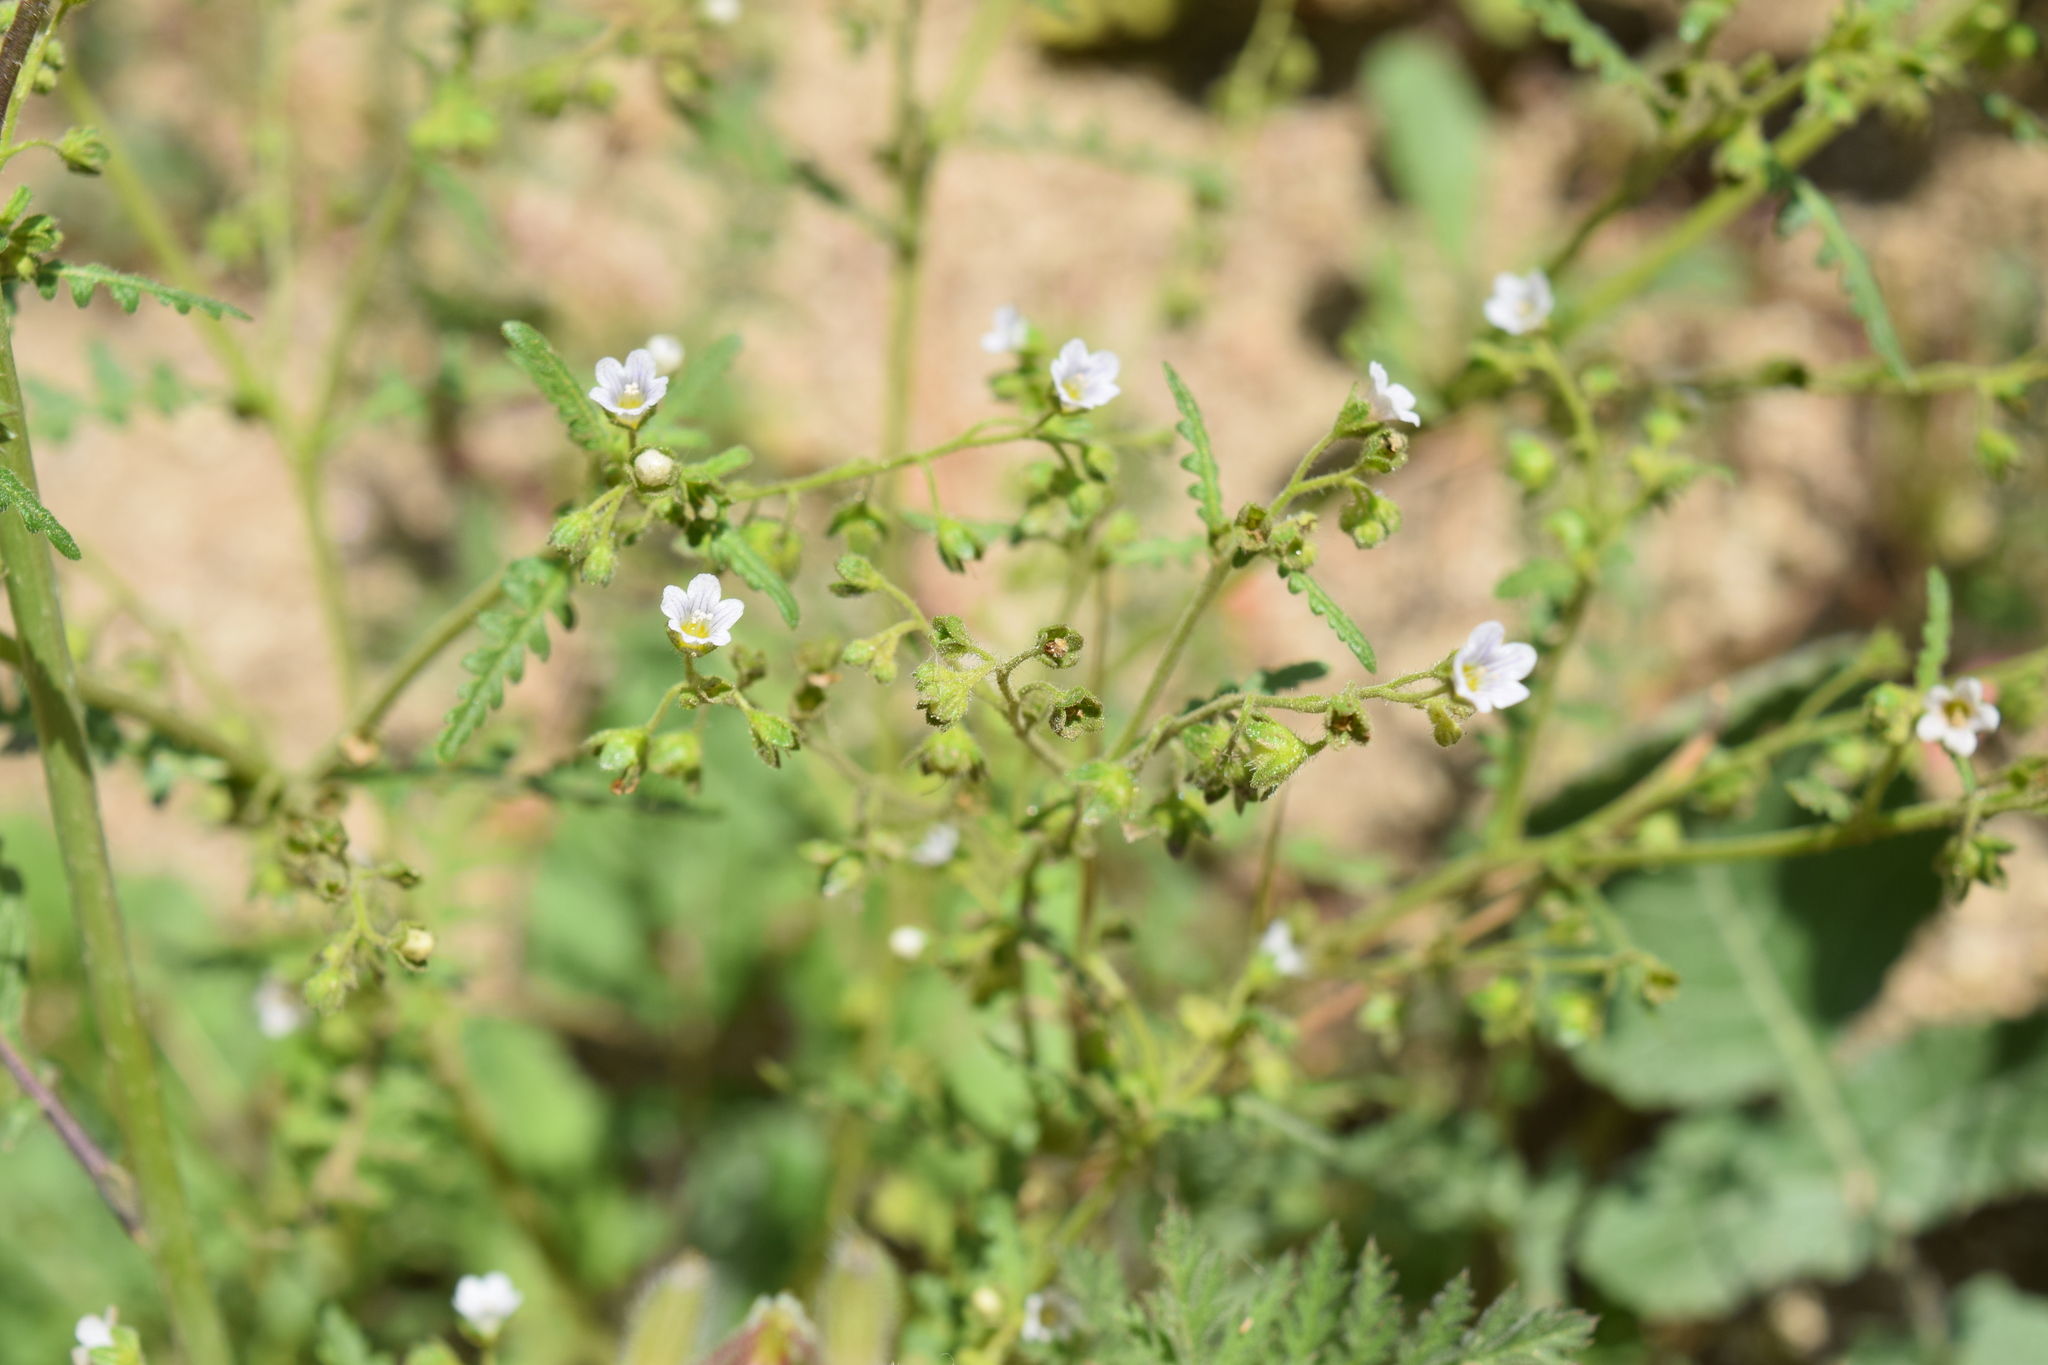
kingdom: Plantae
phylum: Tracheophyta
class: Magnoliopsida
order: Boraginales
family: Hydrophyllaceae
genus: Eucrypta
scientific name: Eucrypta chrysanthemifolia
